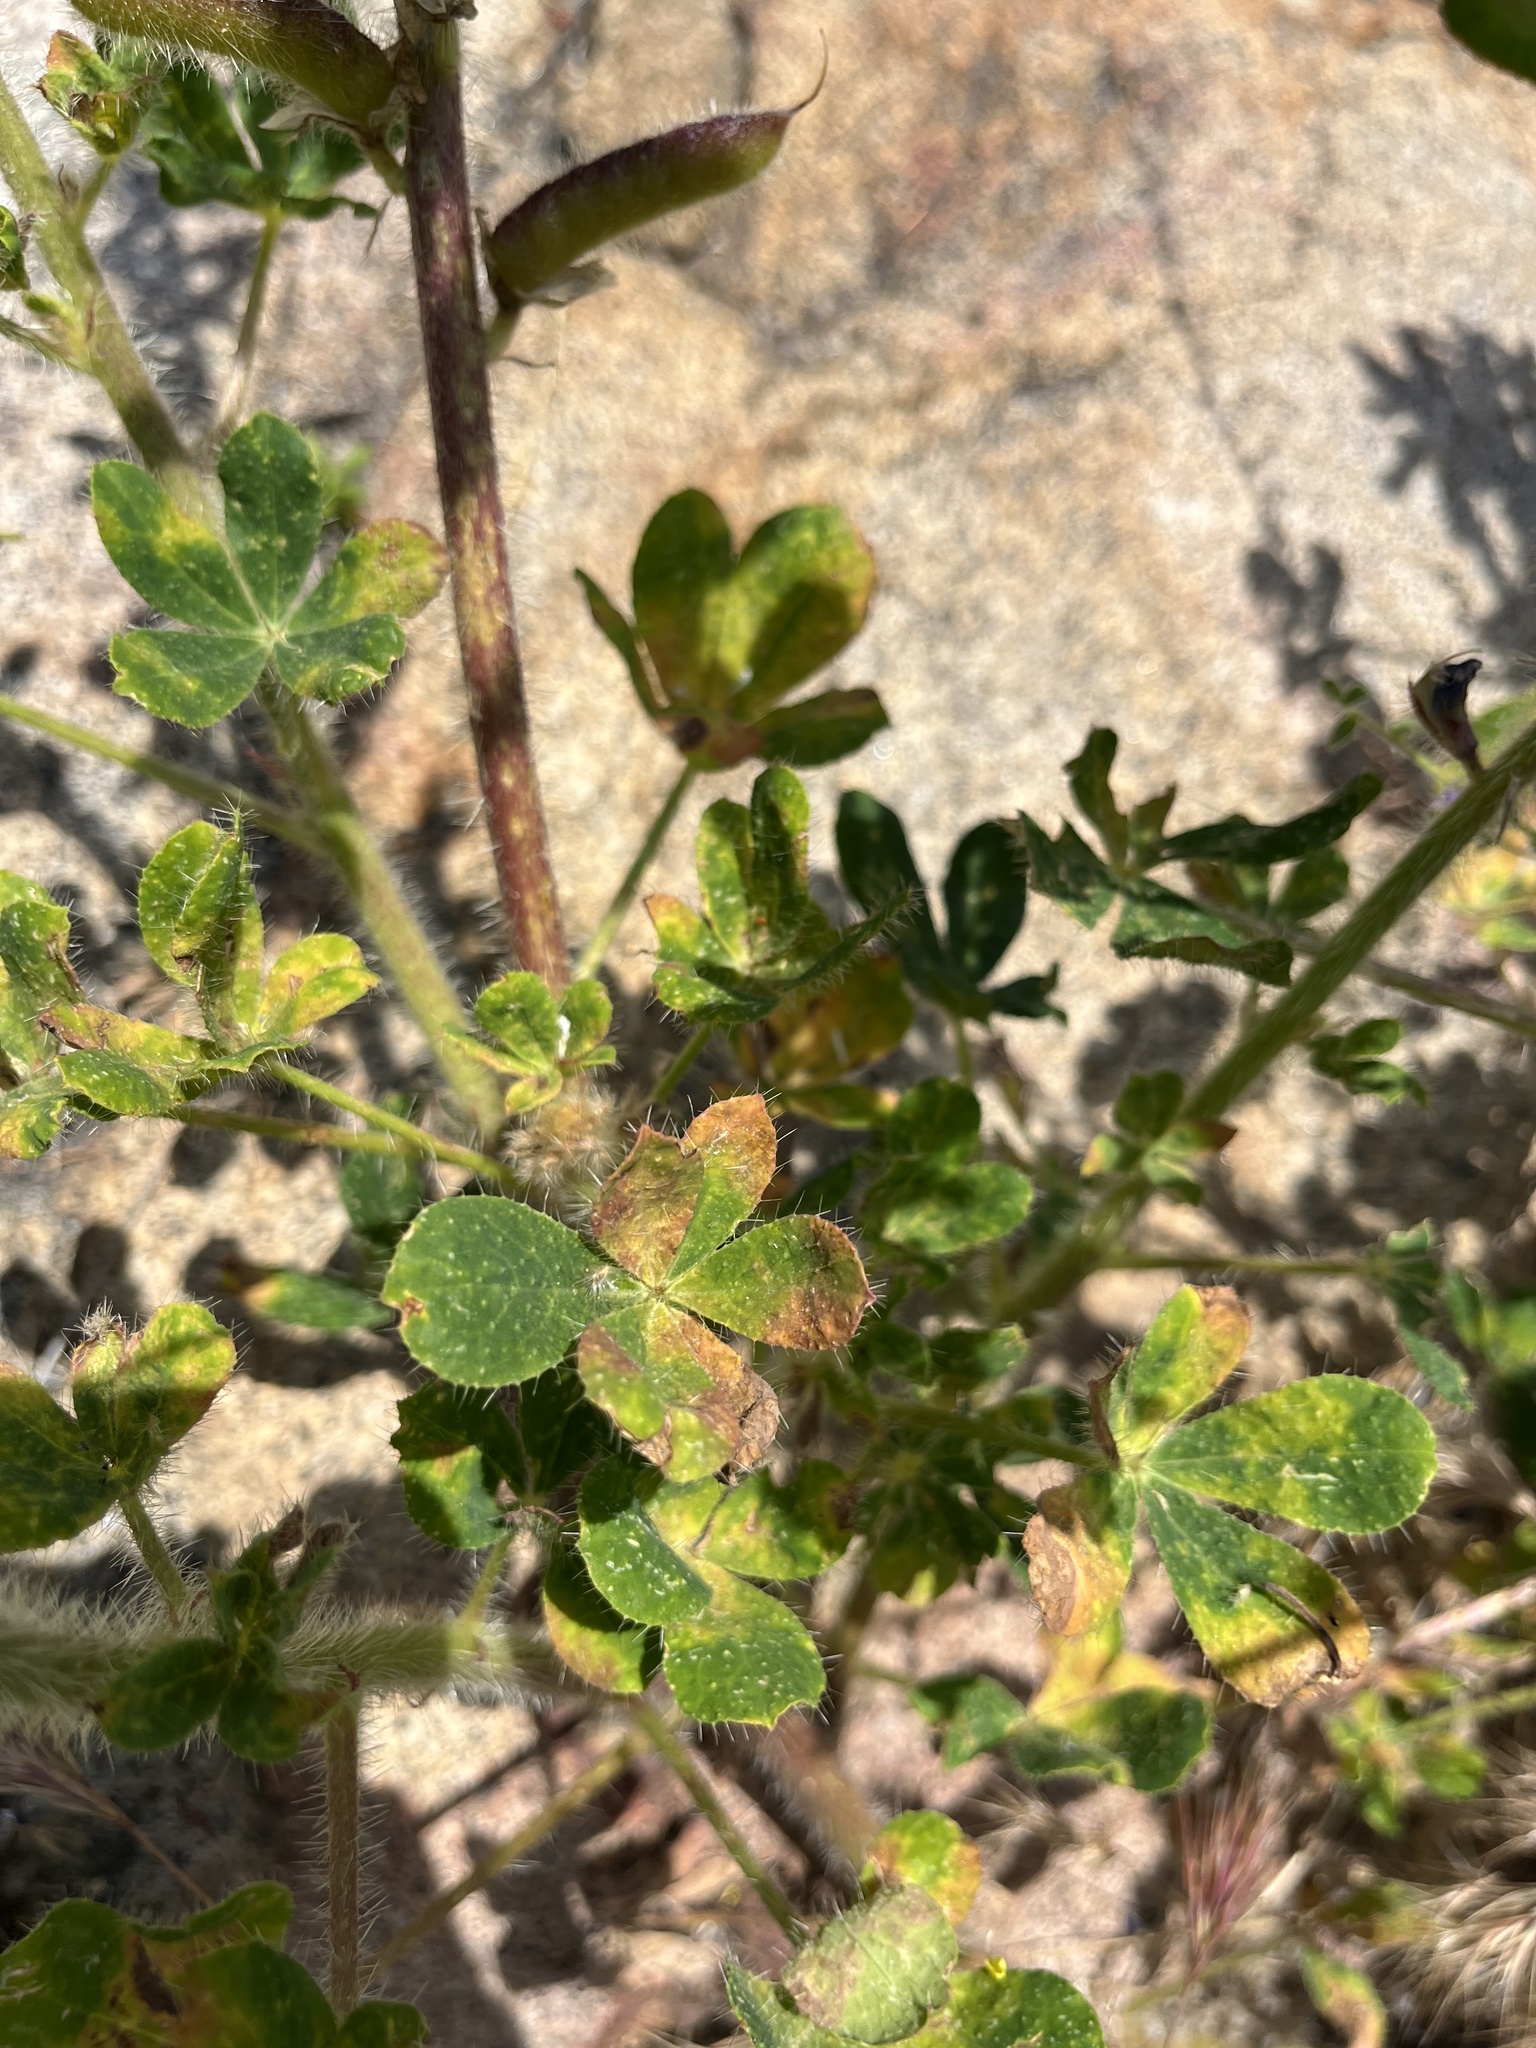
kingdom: Plantae
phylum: Tracheophyta
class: Magnoliopsida
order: Fabales
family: Fabaceae
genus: Lupinus
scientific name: Lupinus hirsutissimus
